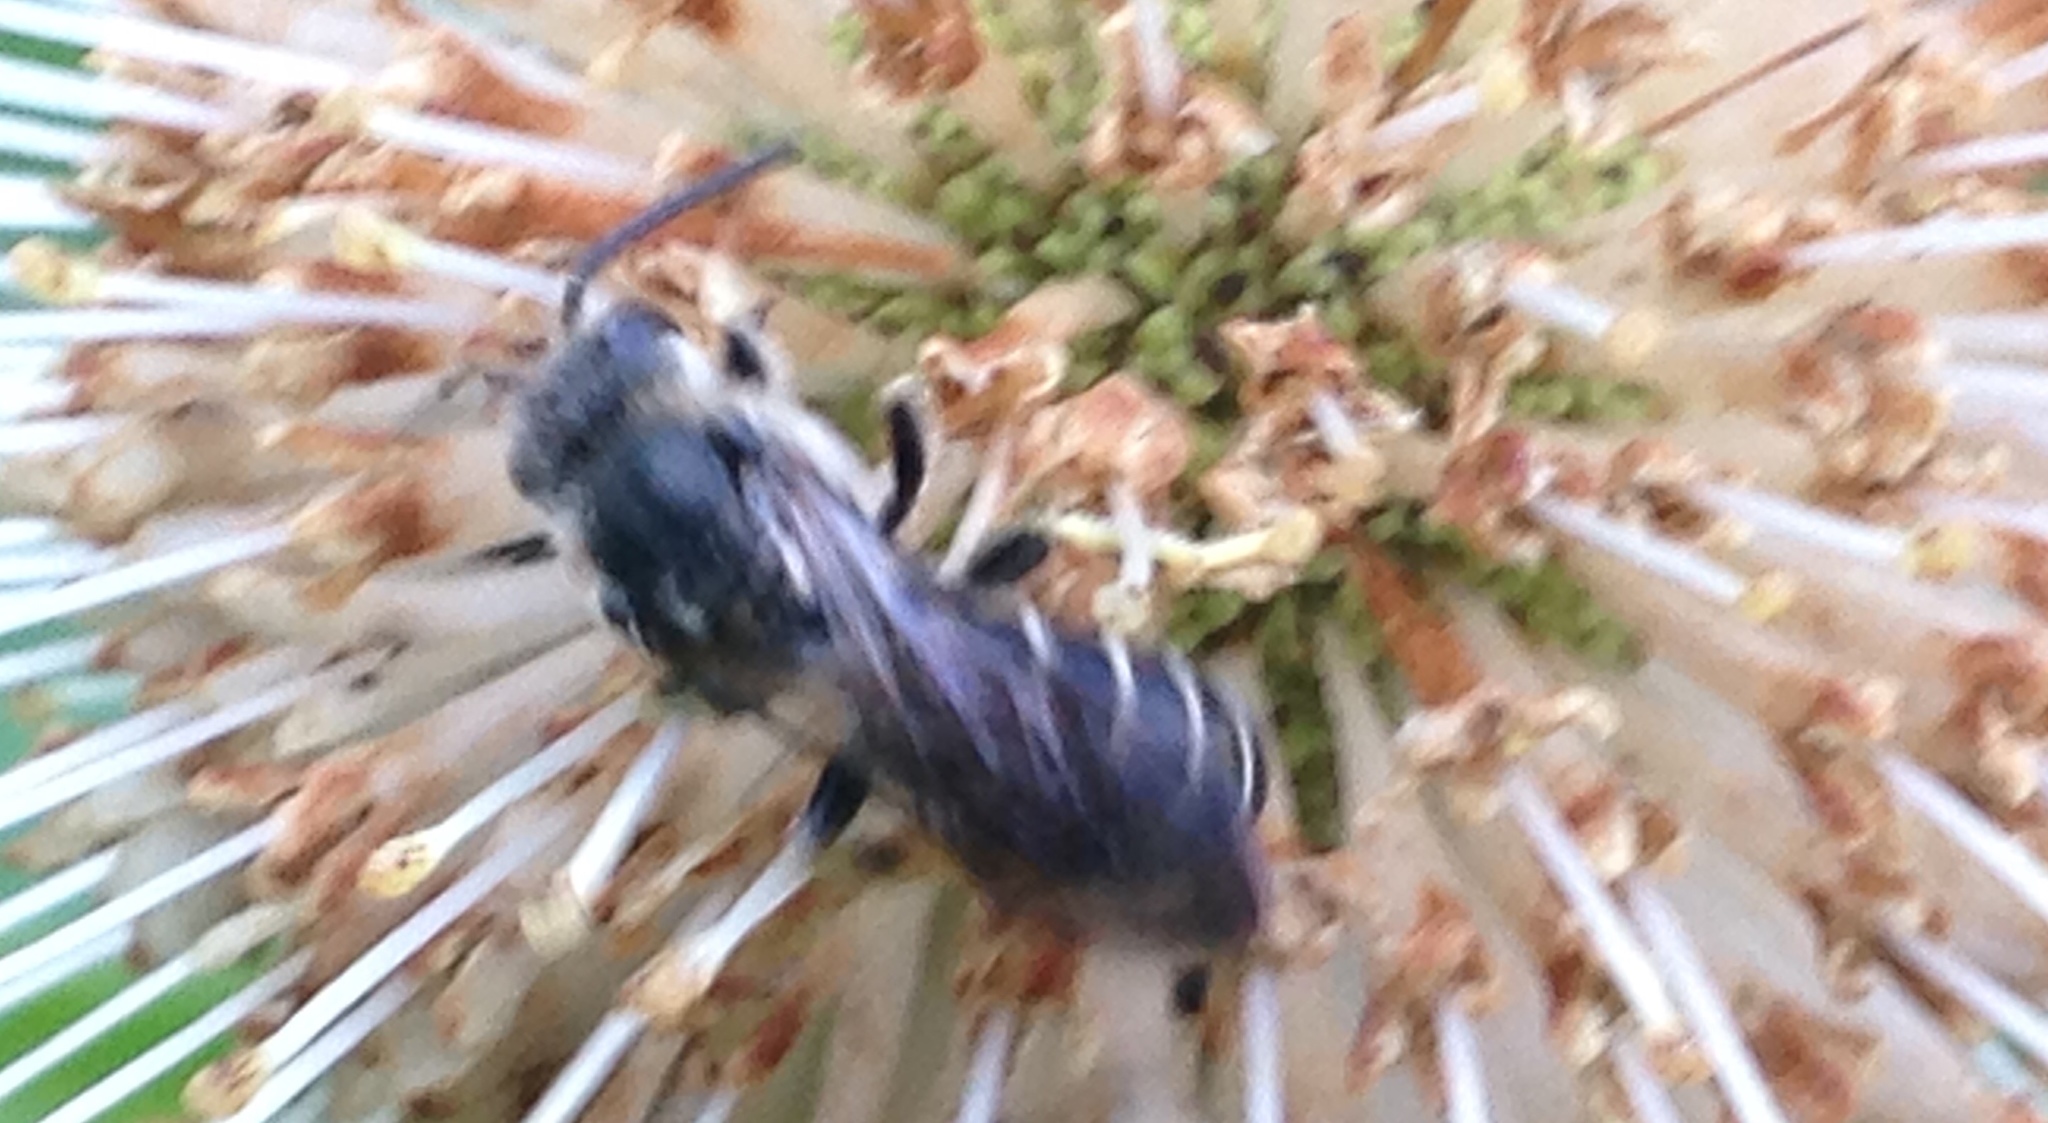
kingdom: Animalia
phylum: Arthropoda
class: Insecta
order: Hymenoptera
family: Halictidae
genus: Halictus
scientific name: Halictus rubicundus
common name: Orange-legged furrow bee
